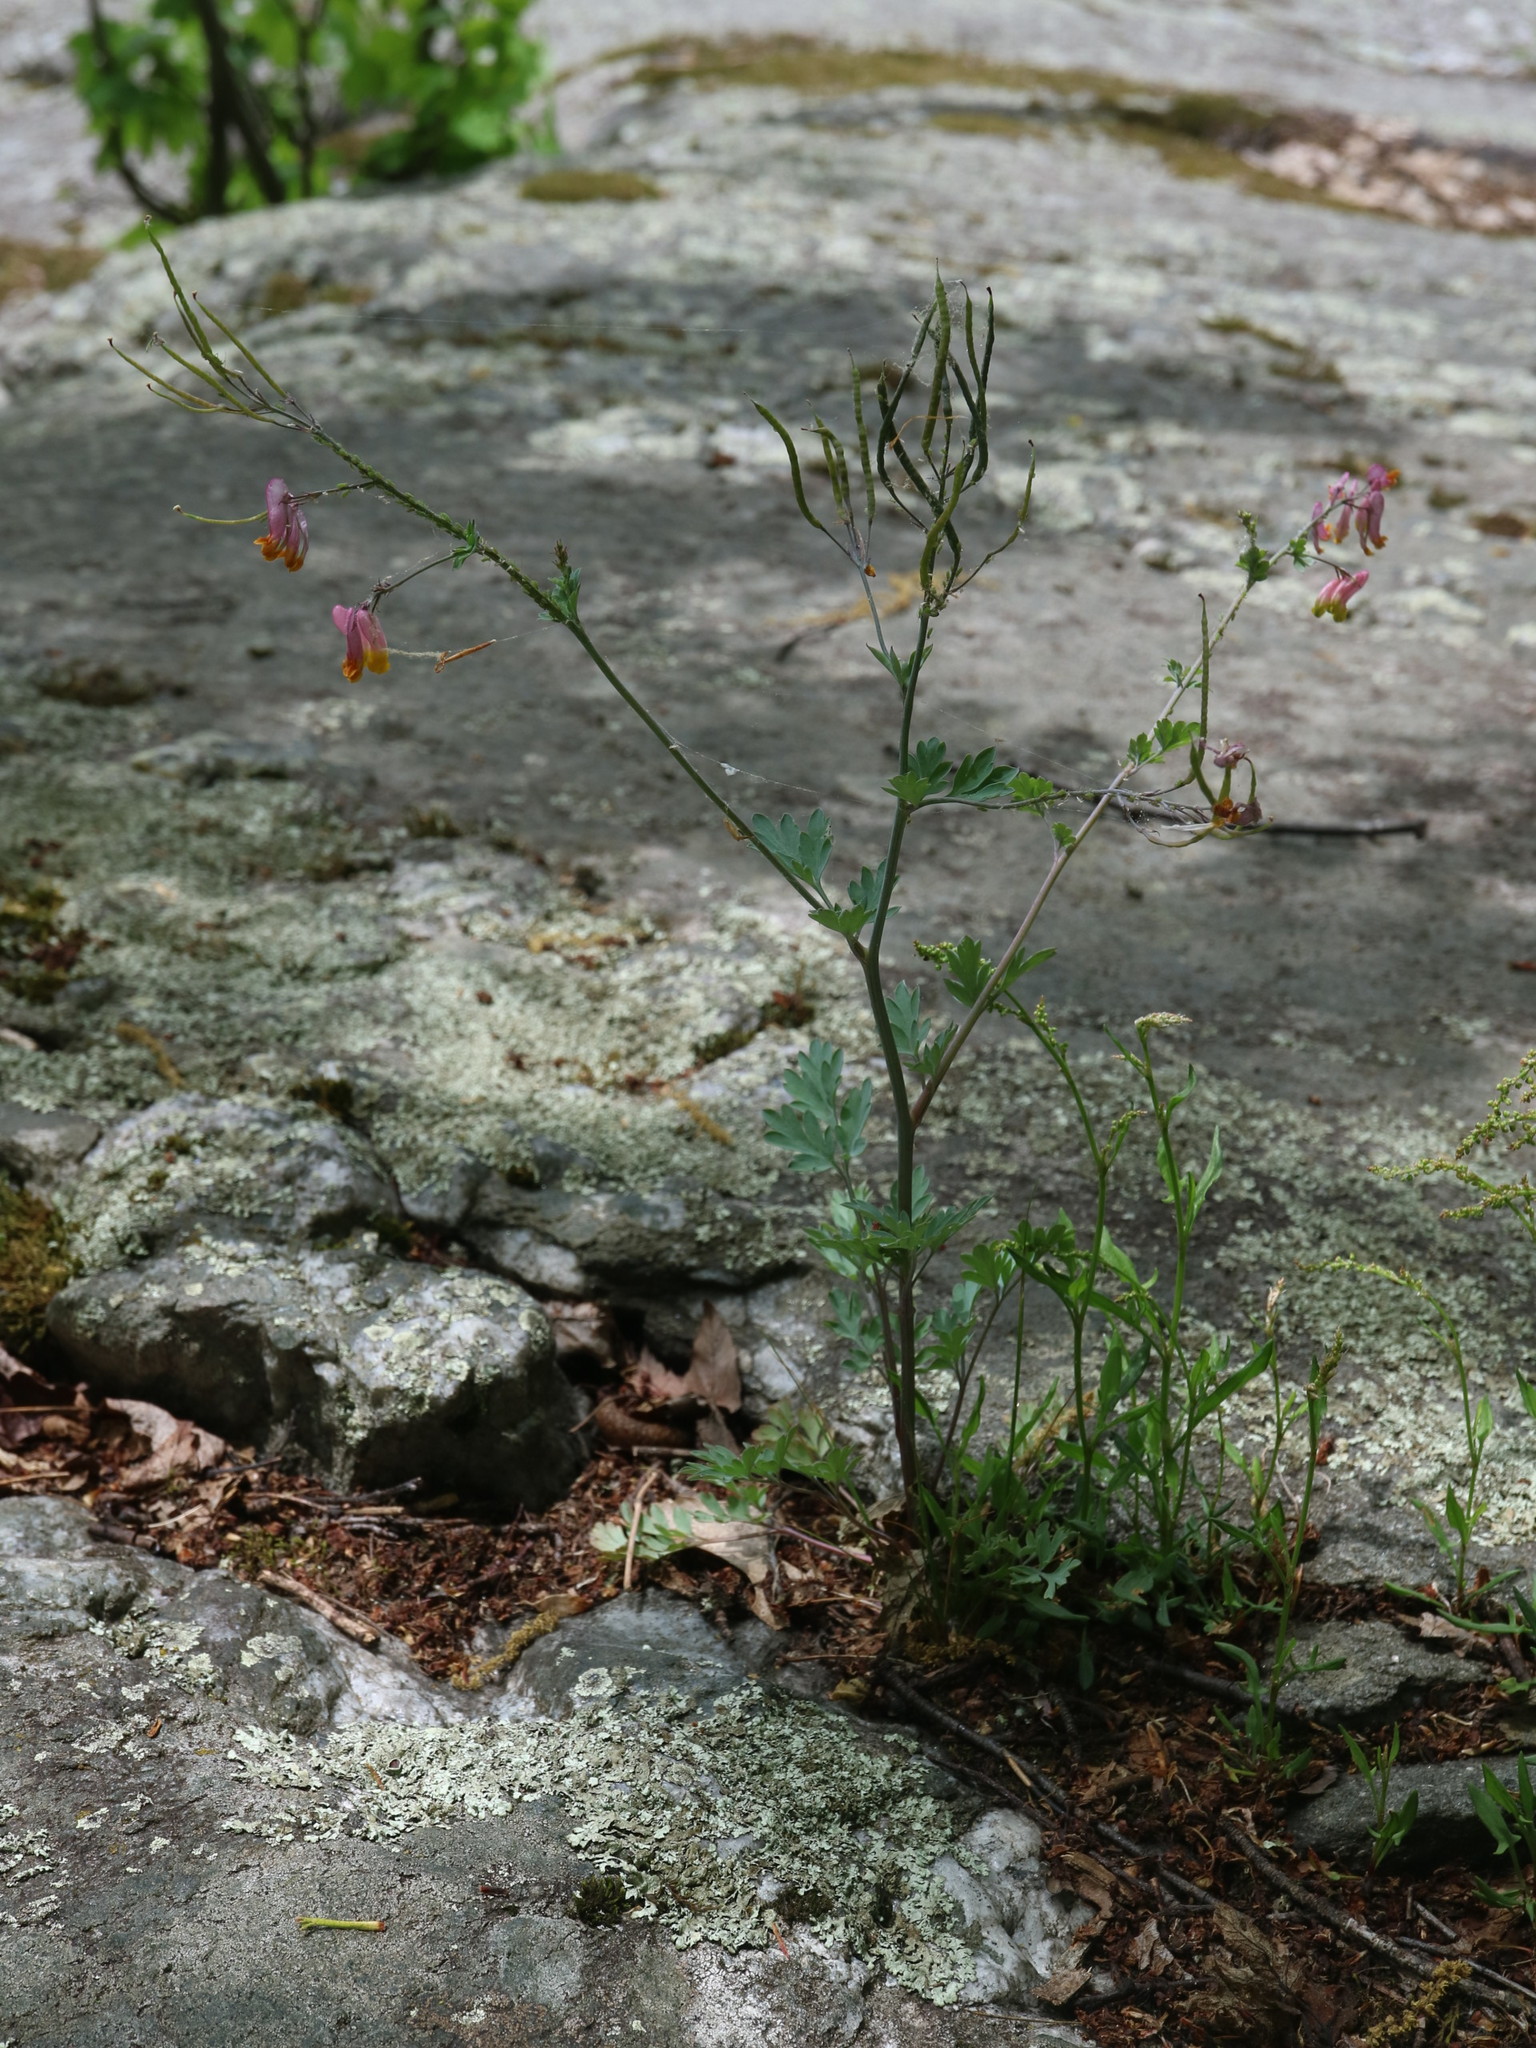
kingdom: Plantae
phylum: Tracheophyta
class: Magnoliopsida
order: Ranunculales
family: Papaveraceae
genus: Capnoides
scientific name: Capnoides sempervirens
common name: Rock harlequin
